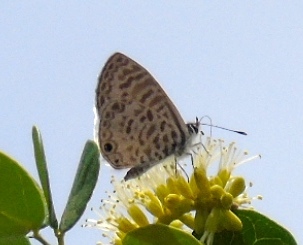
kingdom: Animalia
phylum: Arthropoda
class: Insecta
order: Lepidoptera
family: Lycaenidae
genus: Leptotes
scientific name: Leptotes cassius
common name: Cassius blue
